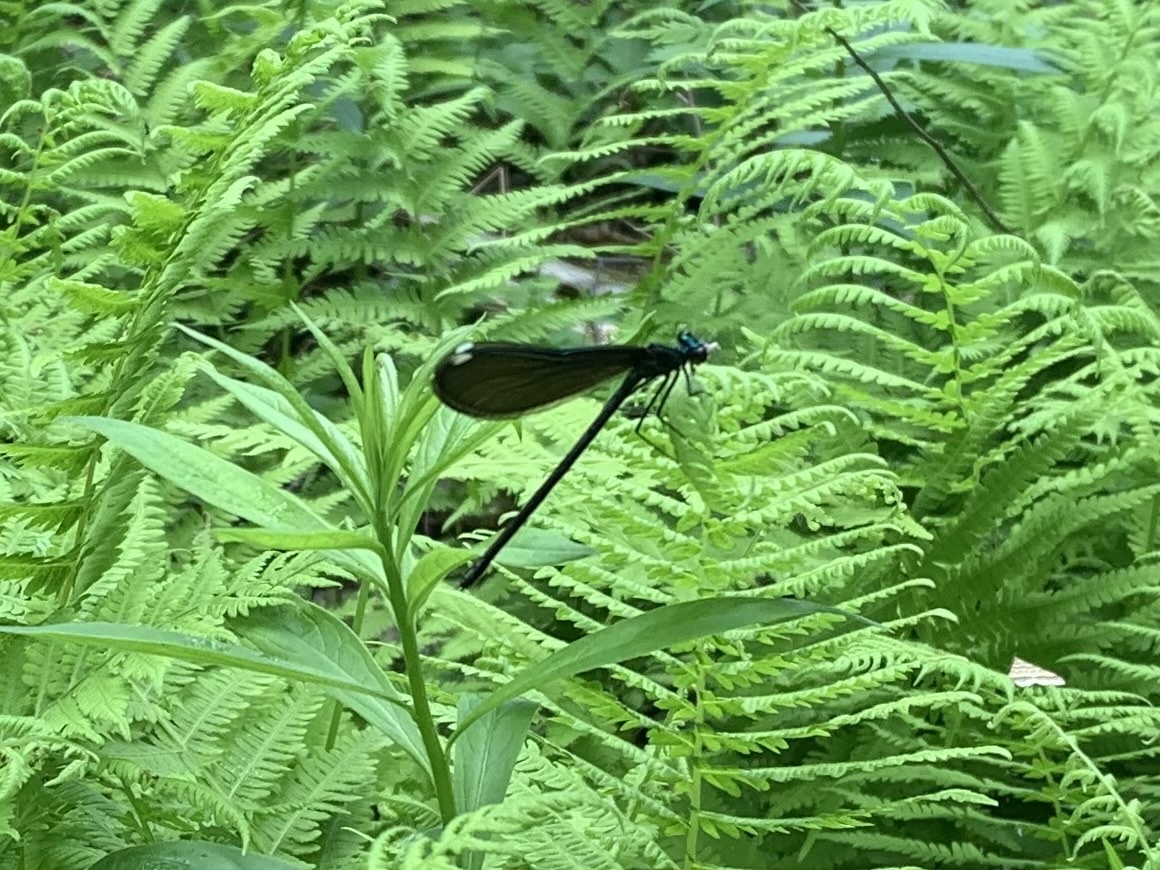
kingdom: Animalia
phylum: Arthropoda
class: Insecta
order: Odonata
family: Calopterygidae
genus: Calopteryx
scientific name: Calopteryx maculata
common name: Ebony jewelwing
